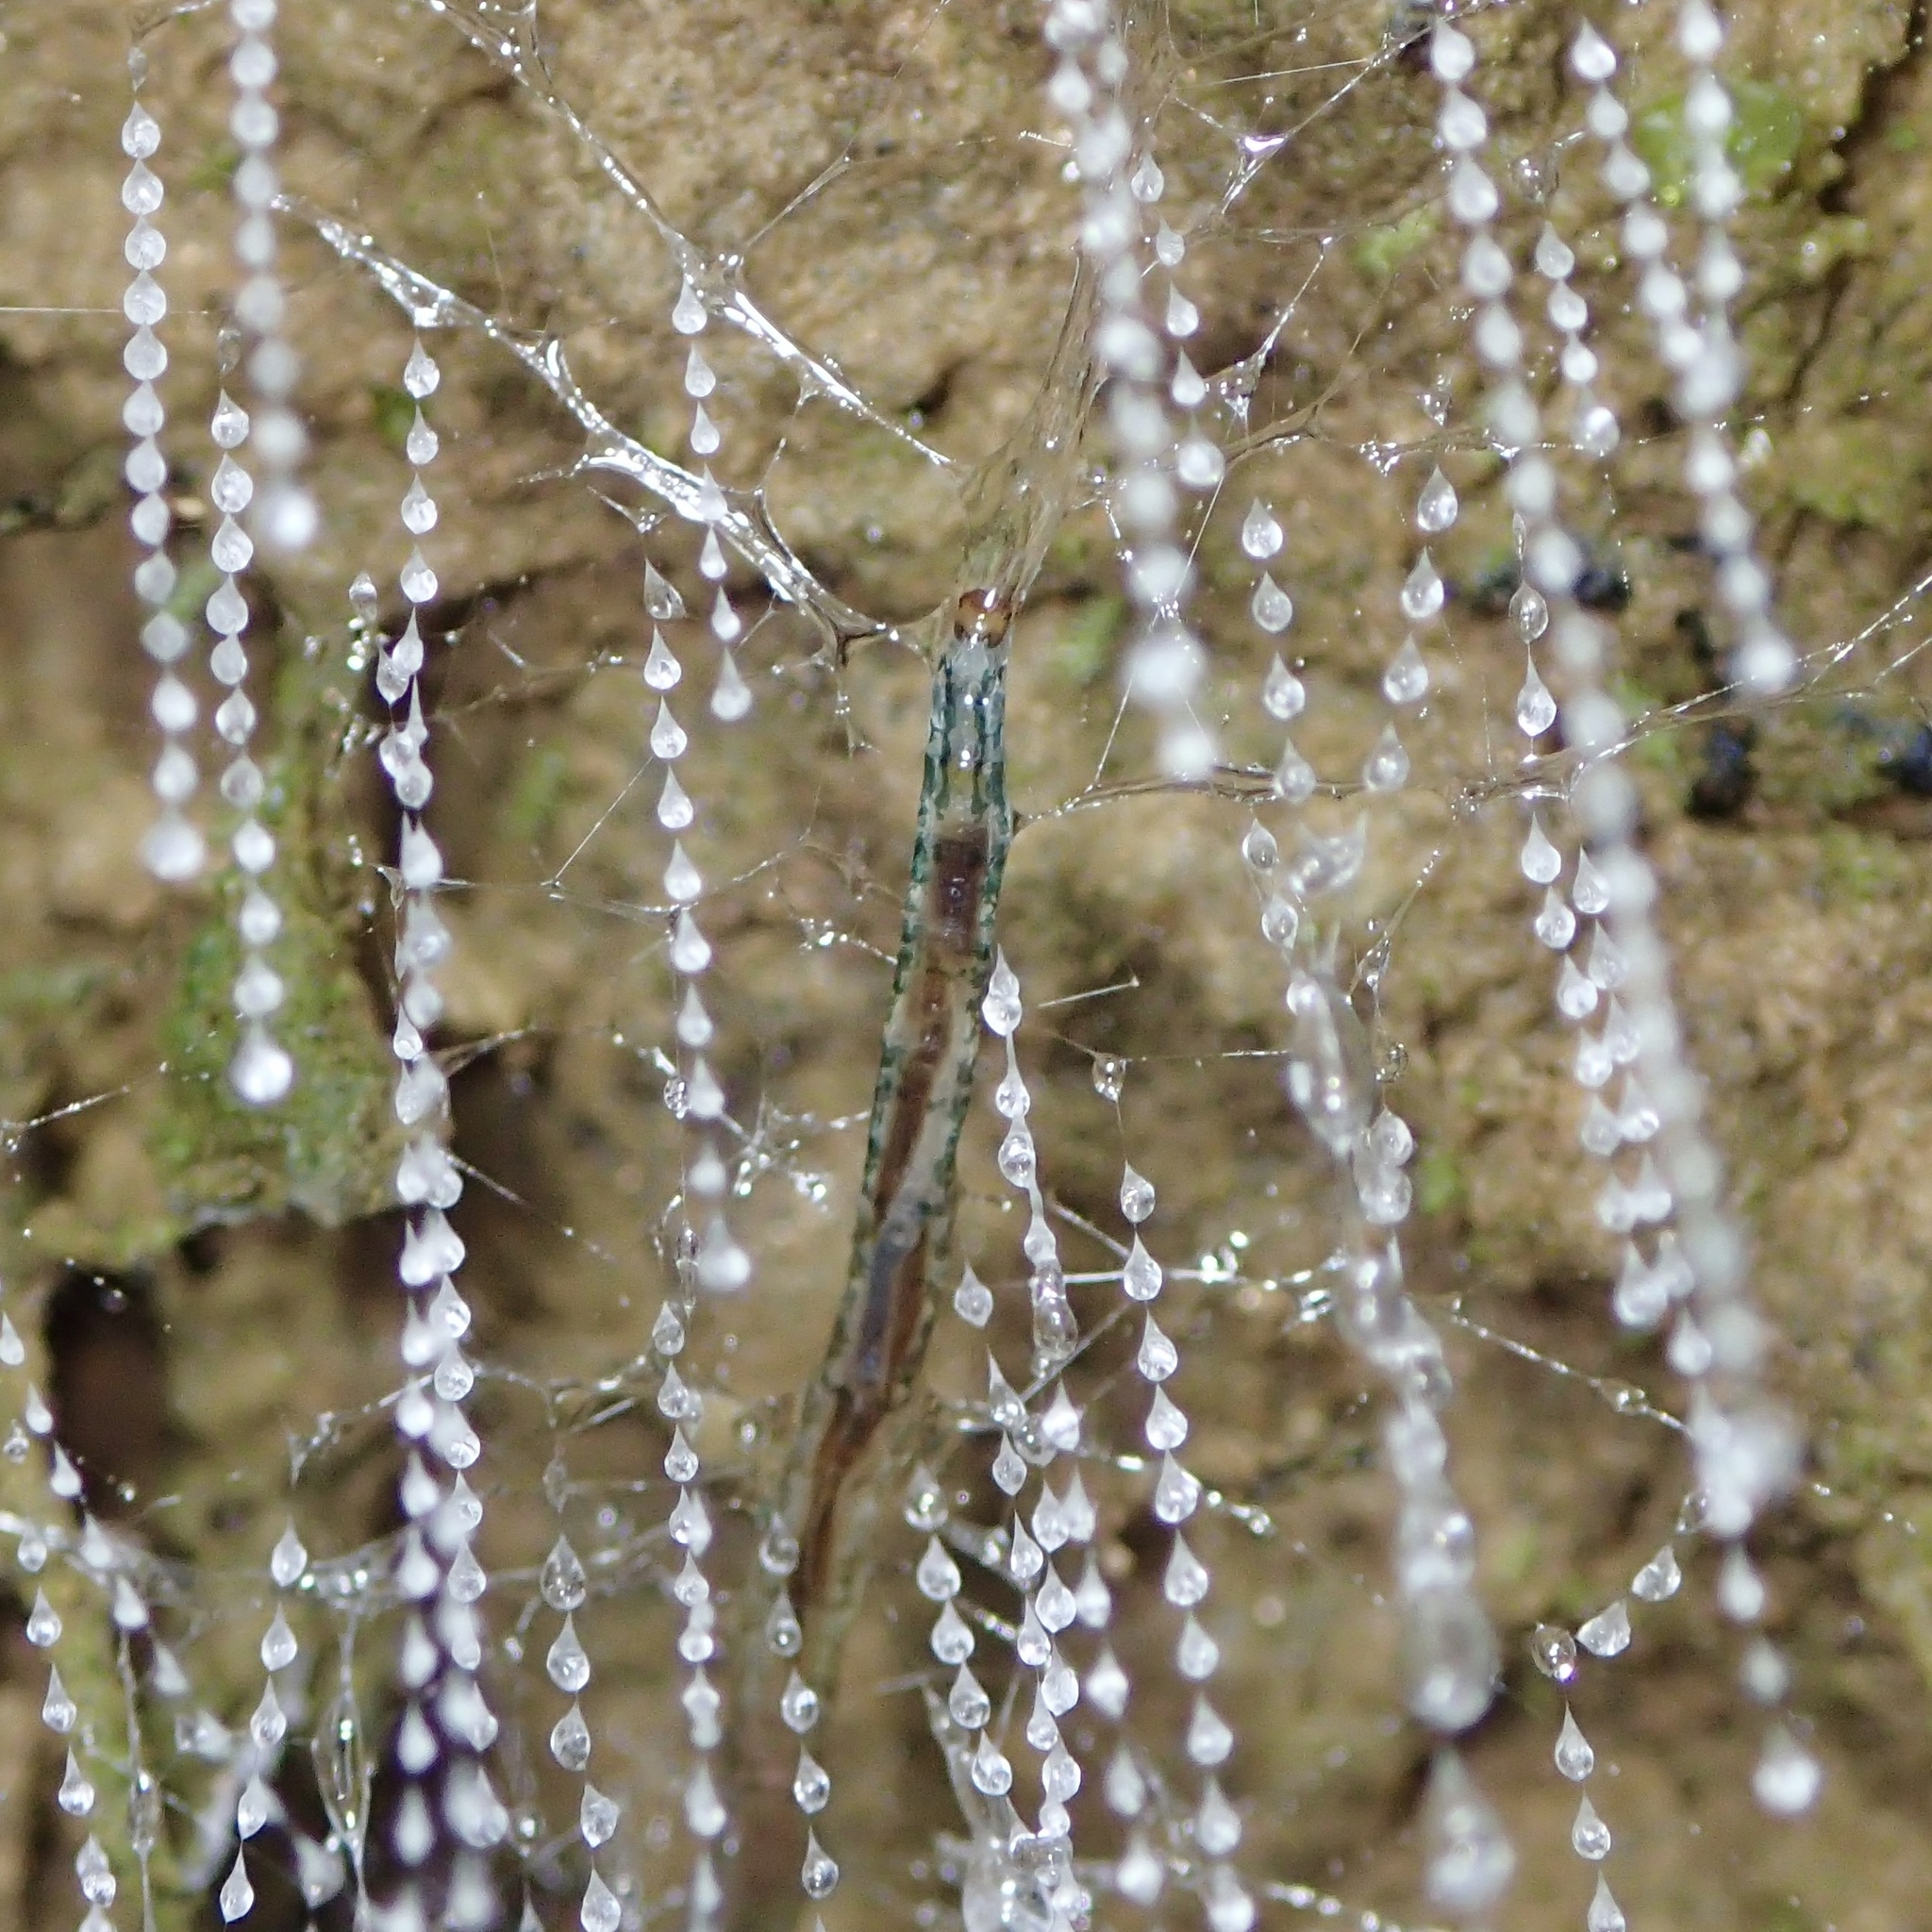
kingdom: Animalia
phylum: Arthropoda
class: Insecta
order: Diptera
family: Keroplatidae
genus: Arachnocampa
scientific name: Arachnocampa luminosa
